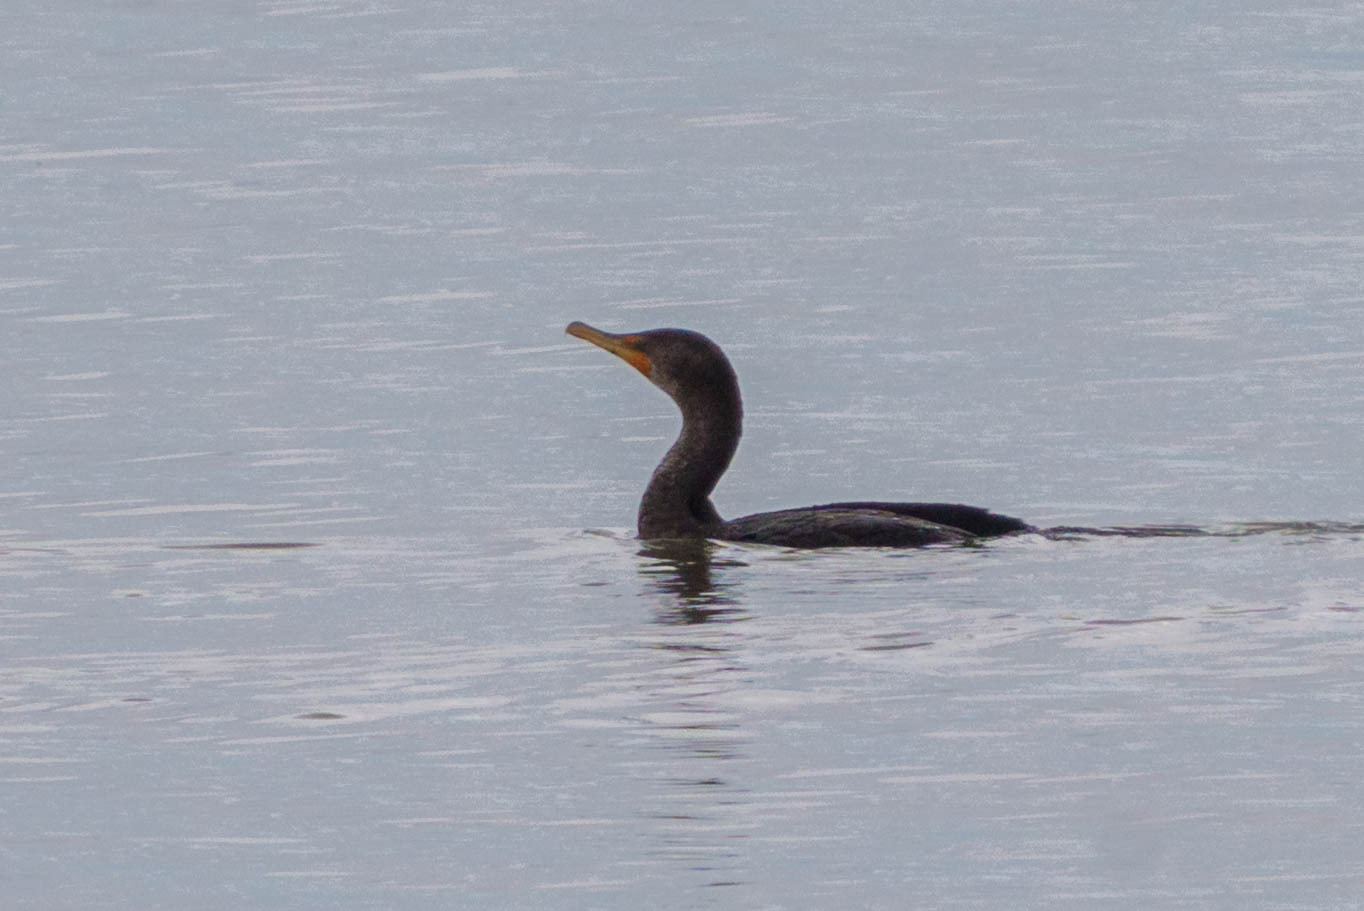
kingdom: Animalia
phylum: Chordata
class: Aves
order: Suliformes
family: Phalacrocoracidae
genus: Phalacrocorax
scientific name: Phalacrocorax auritus
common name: Double-crested cormorant
